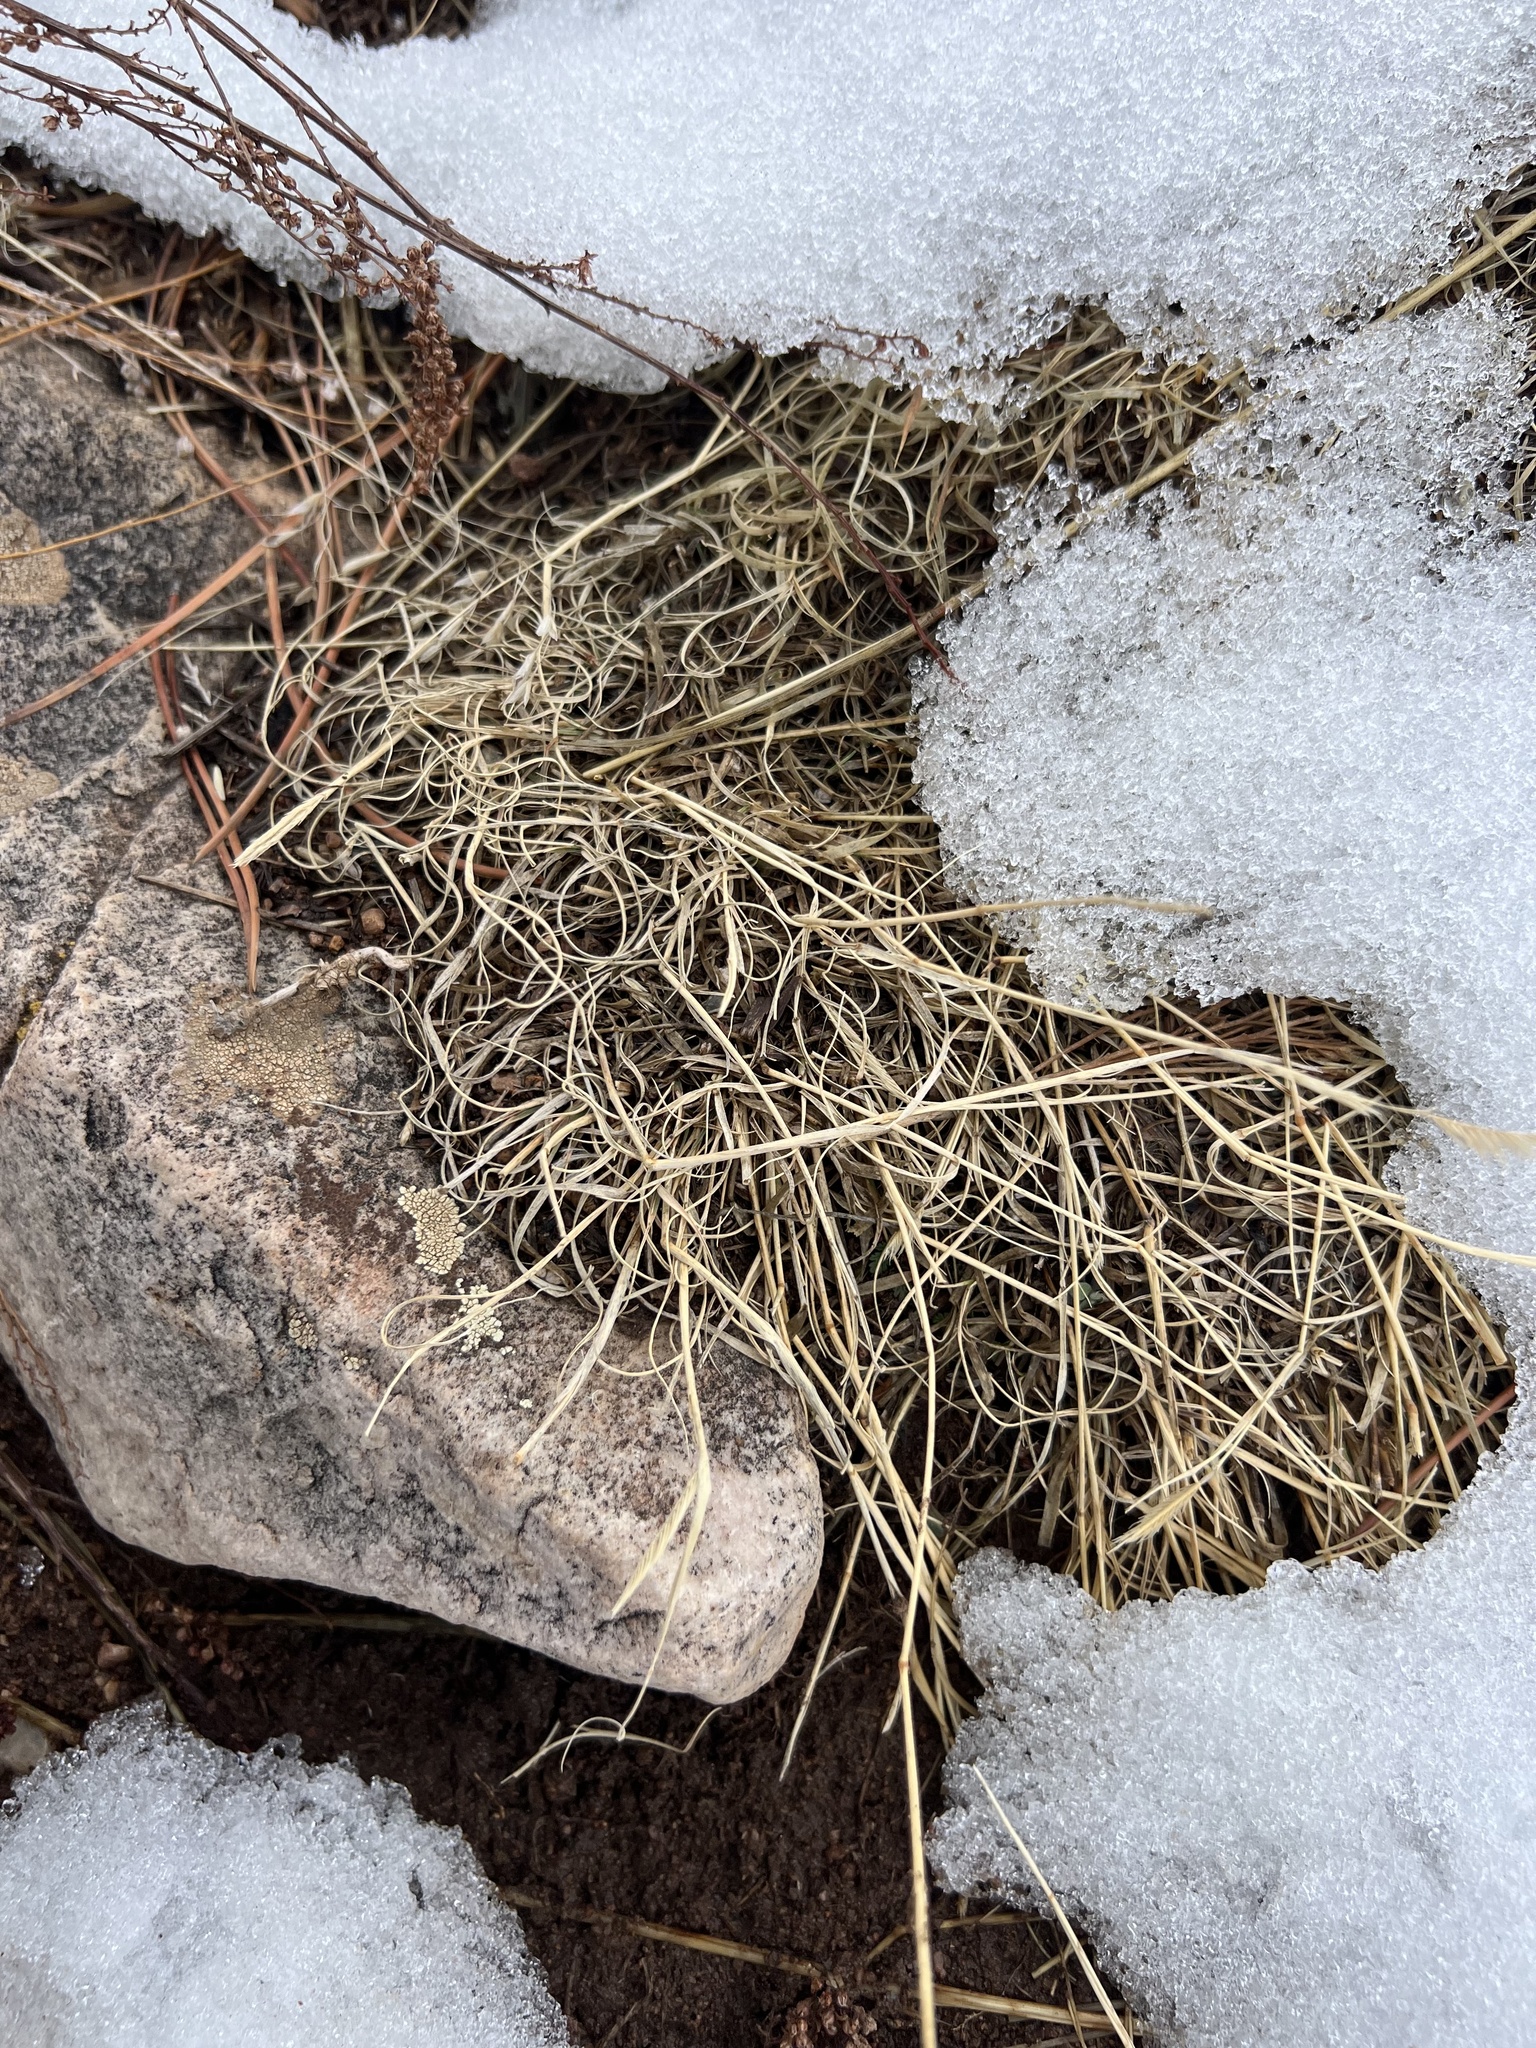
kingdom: Plantae
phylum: Tracheophyta
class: Liliopsida
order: Poales
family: Poaceae
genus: Bouteloua
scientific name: Bouteloua dactyloides
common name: Buffalo grass
